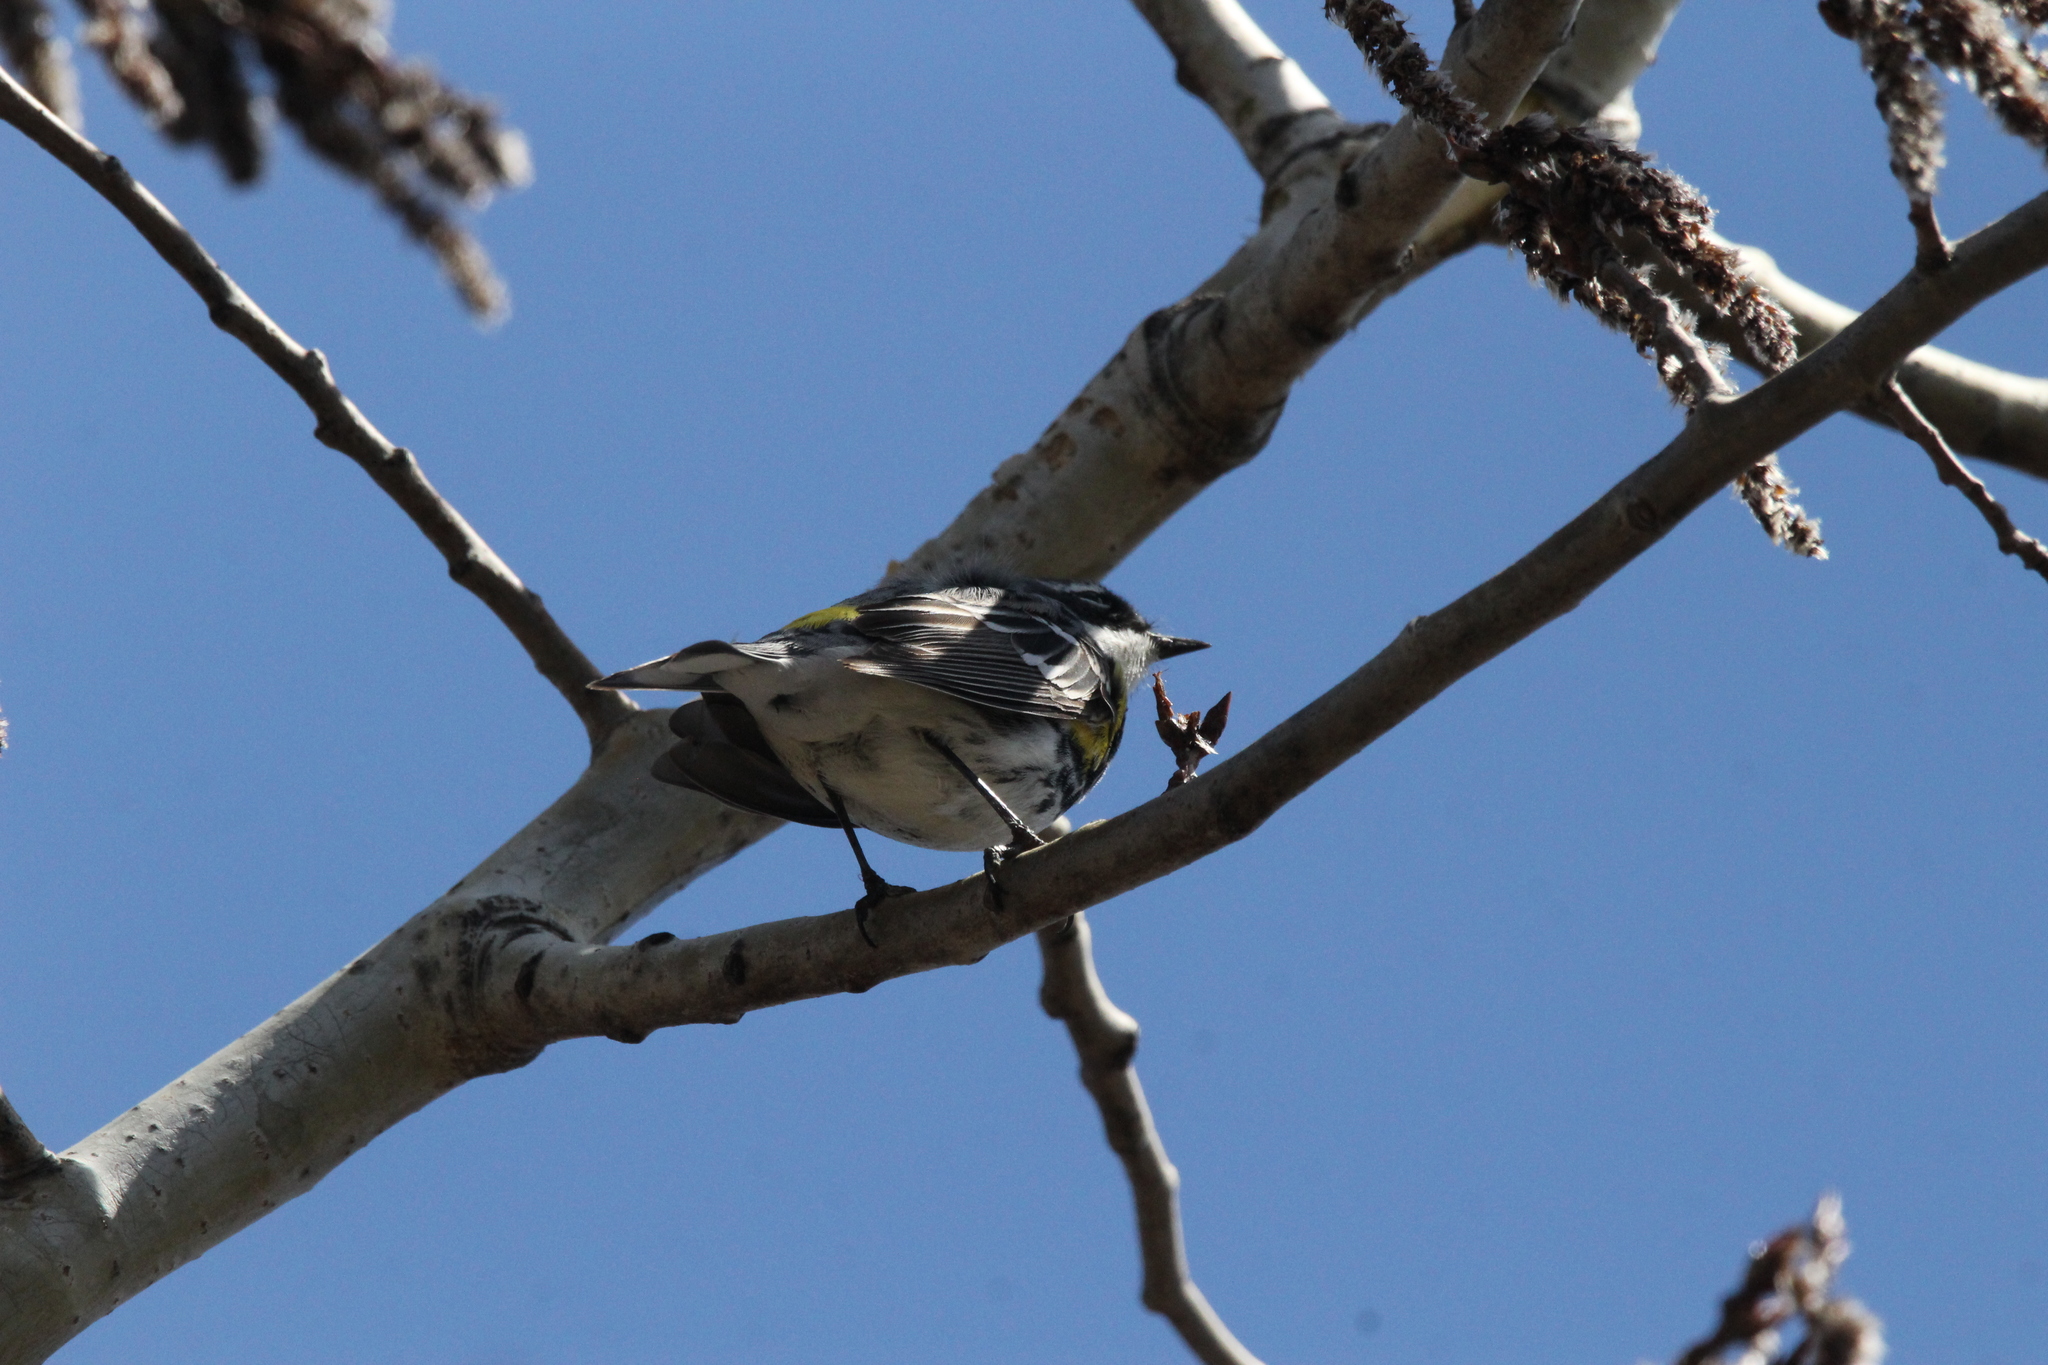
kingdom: Animalia
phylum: Chordata
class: Aves
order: Passeriformes
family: Parulidae
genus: Setophaga
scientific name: Setophaga coronata
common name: Myrtle warbler
